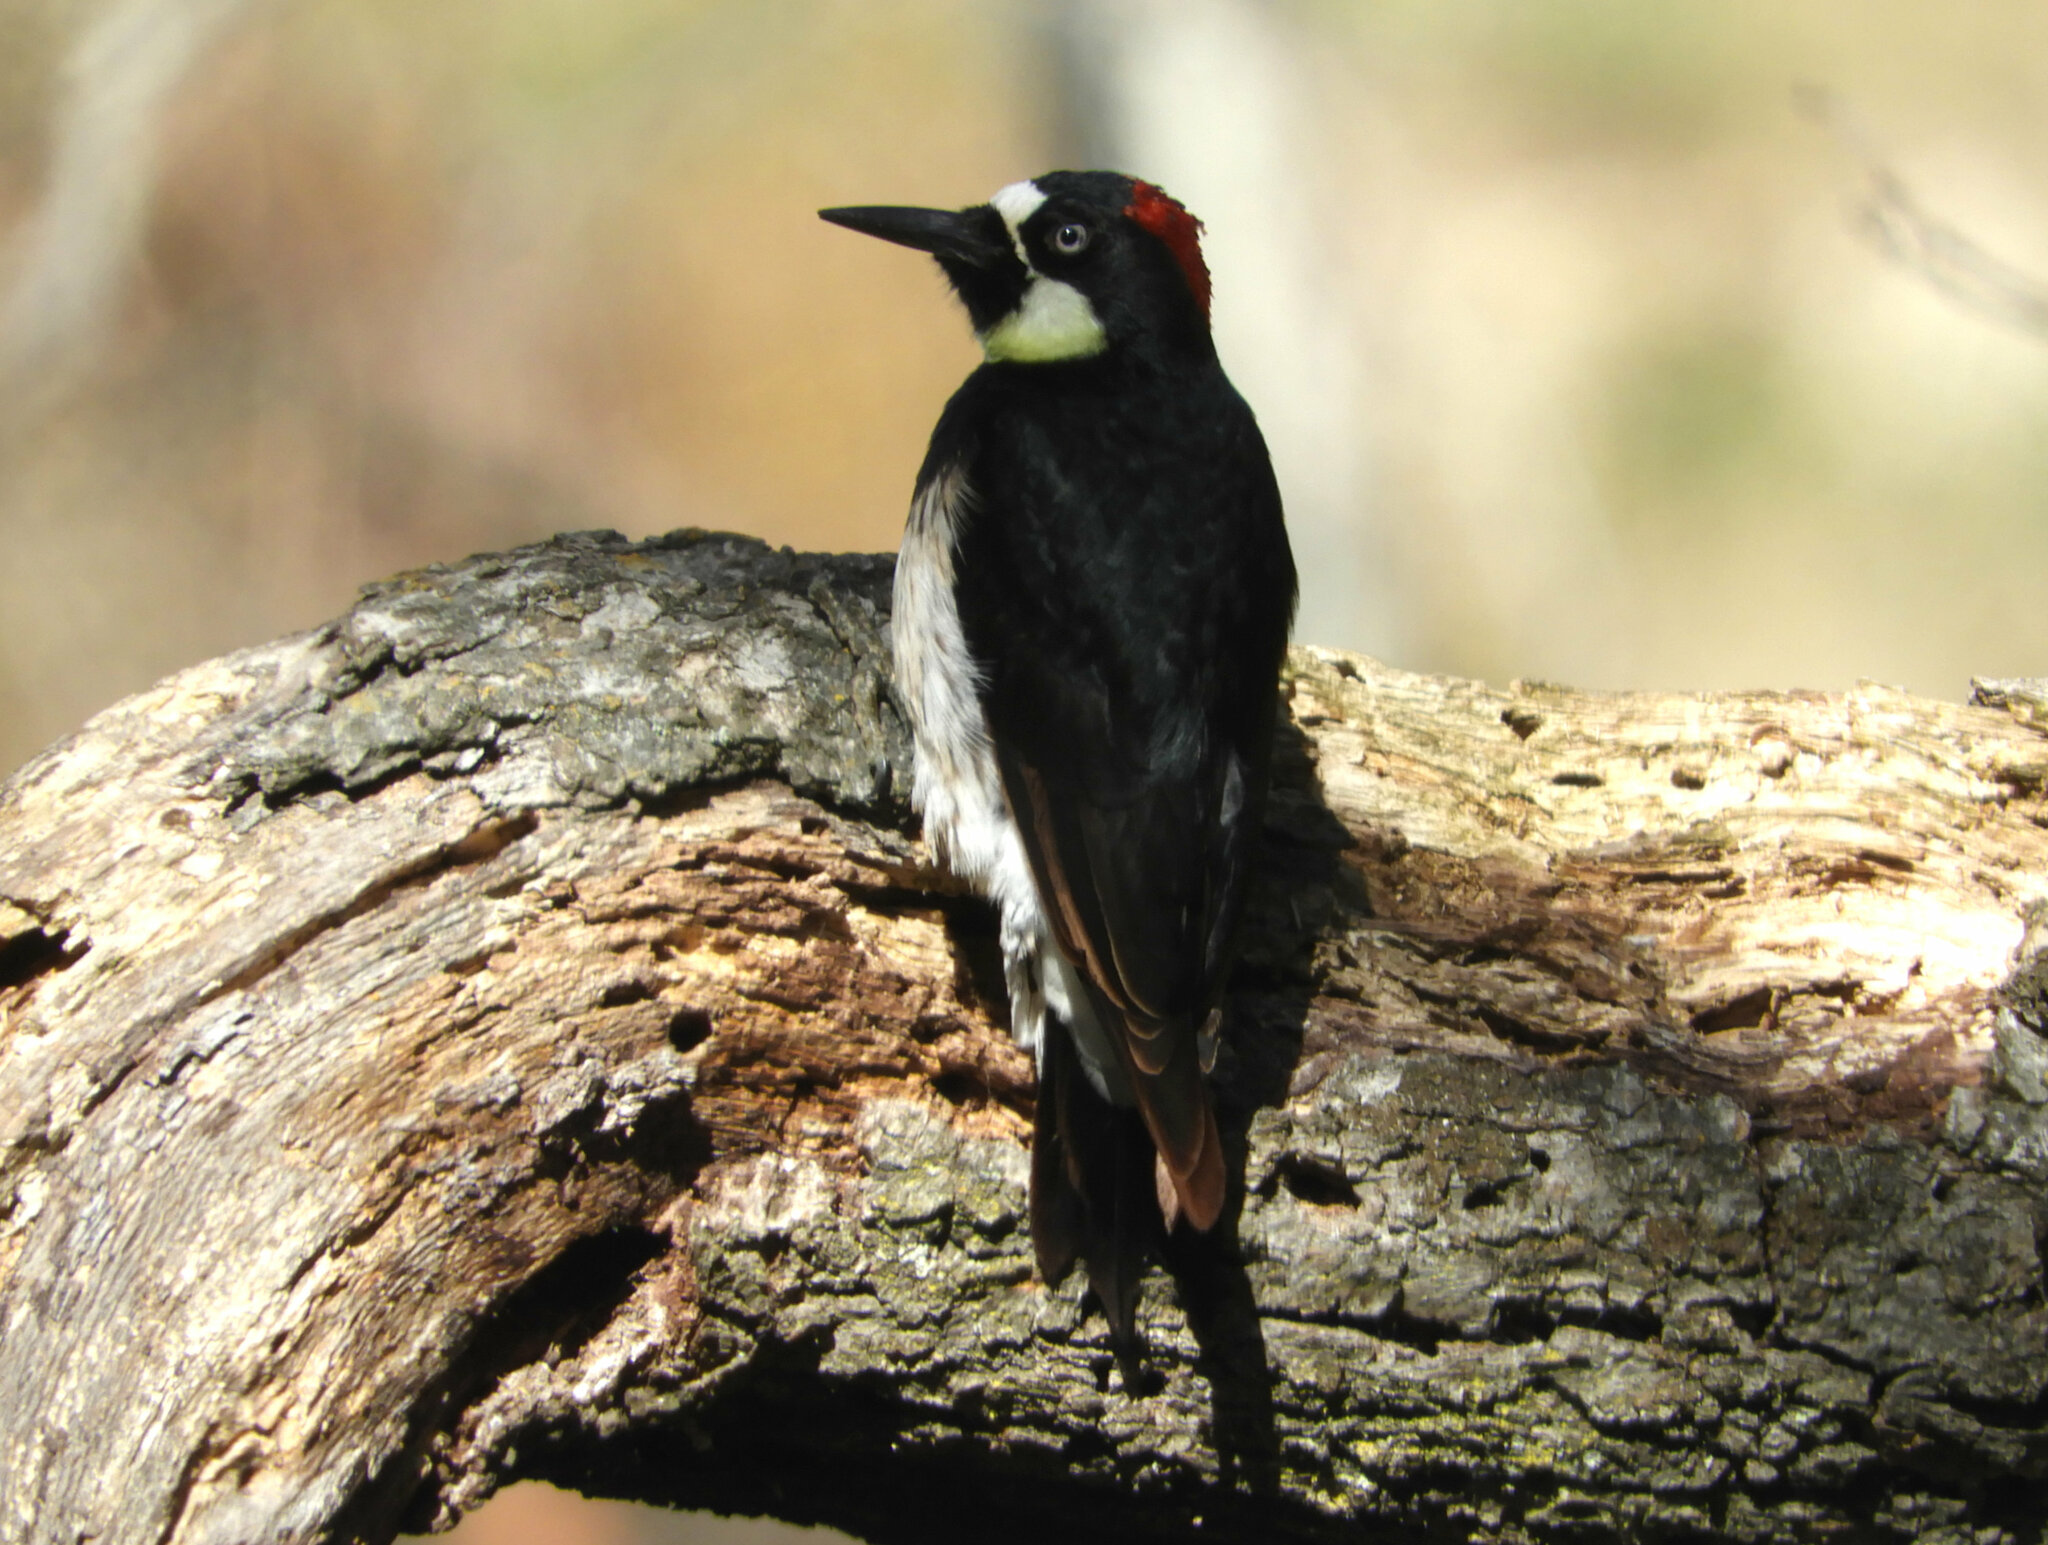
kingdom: Animalia
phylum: Chordata
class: Aves
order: Piciformes
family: Picidae
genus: Melanerpes
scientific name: Melanerpes formicivorus
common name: Acorn woodpecker
